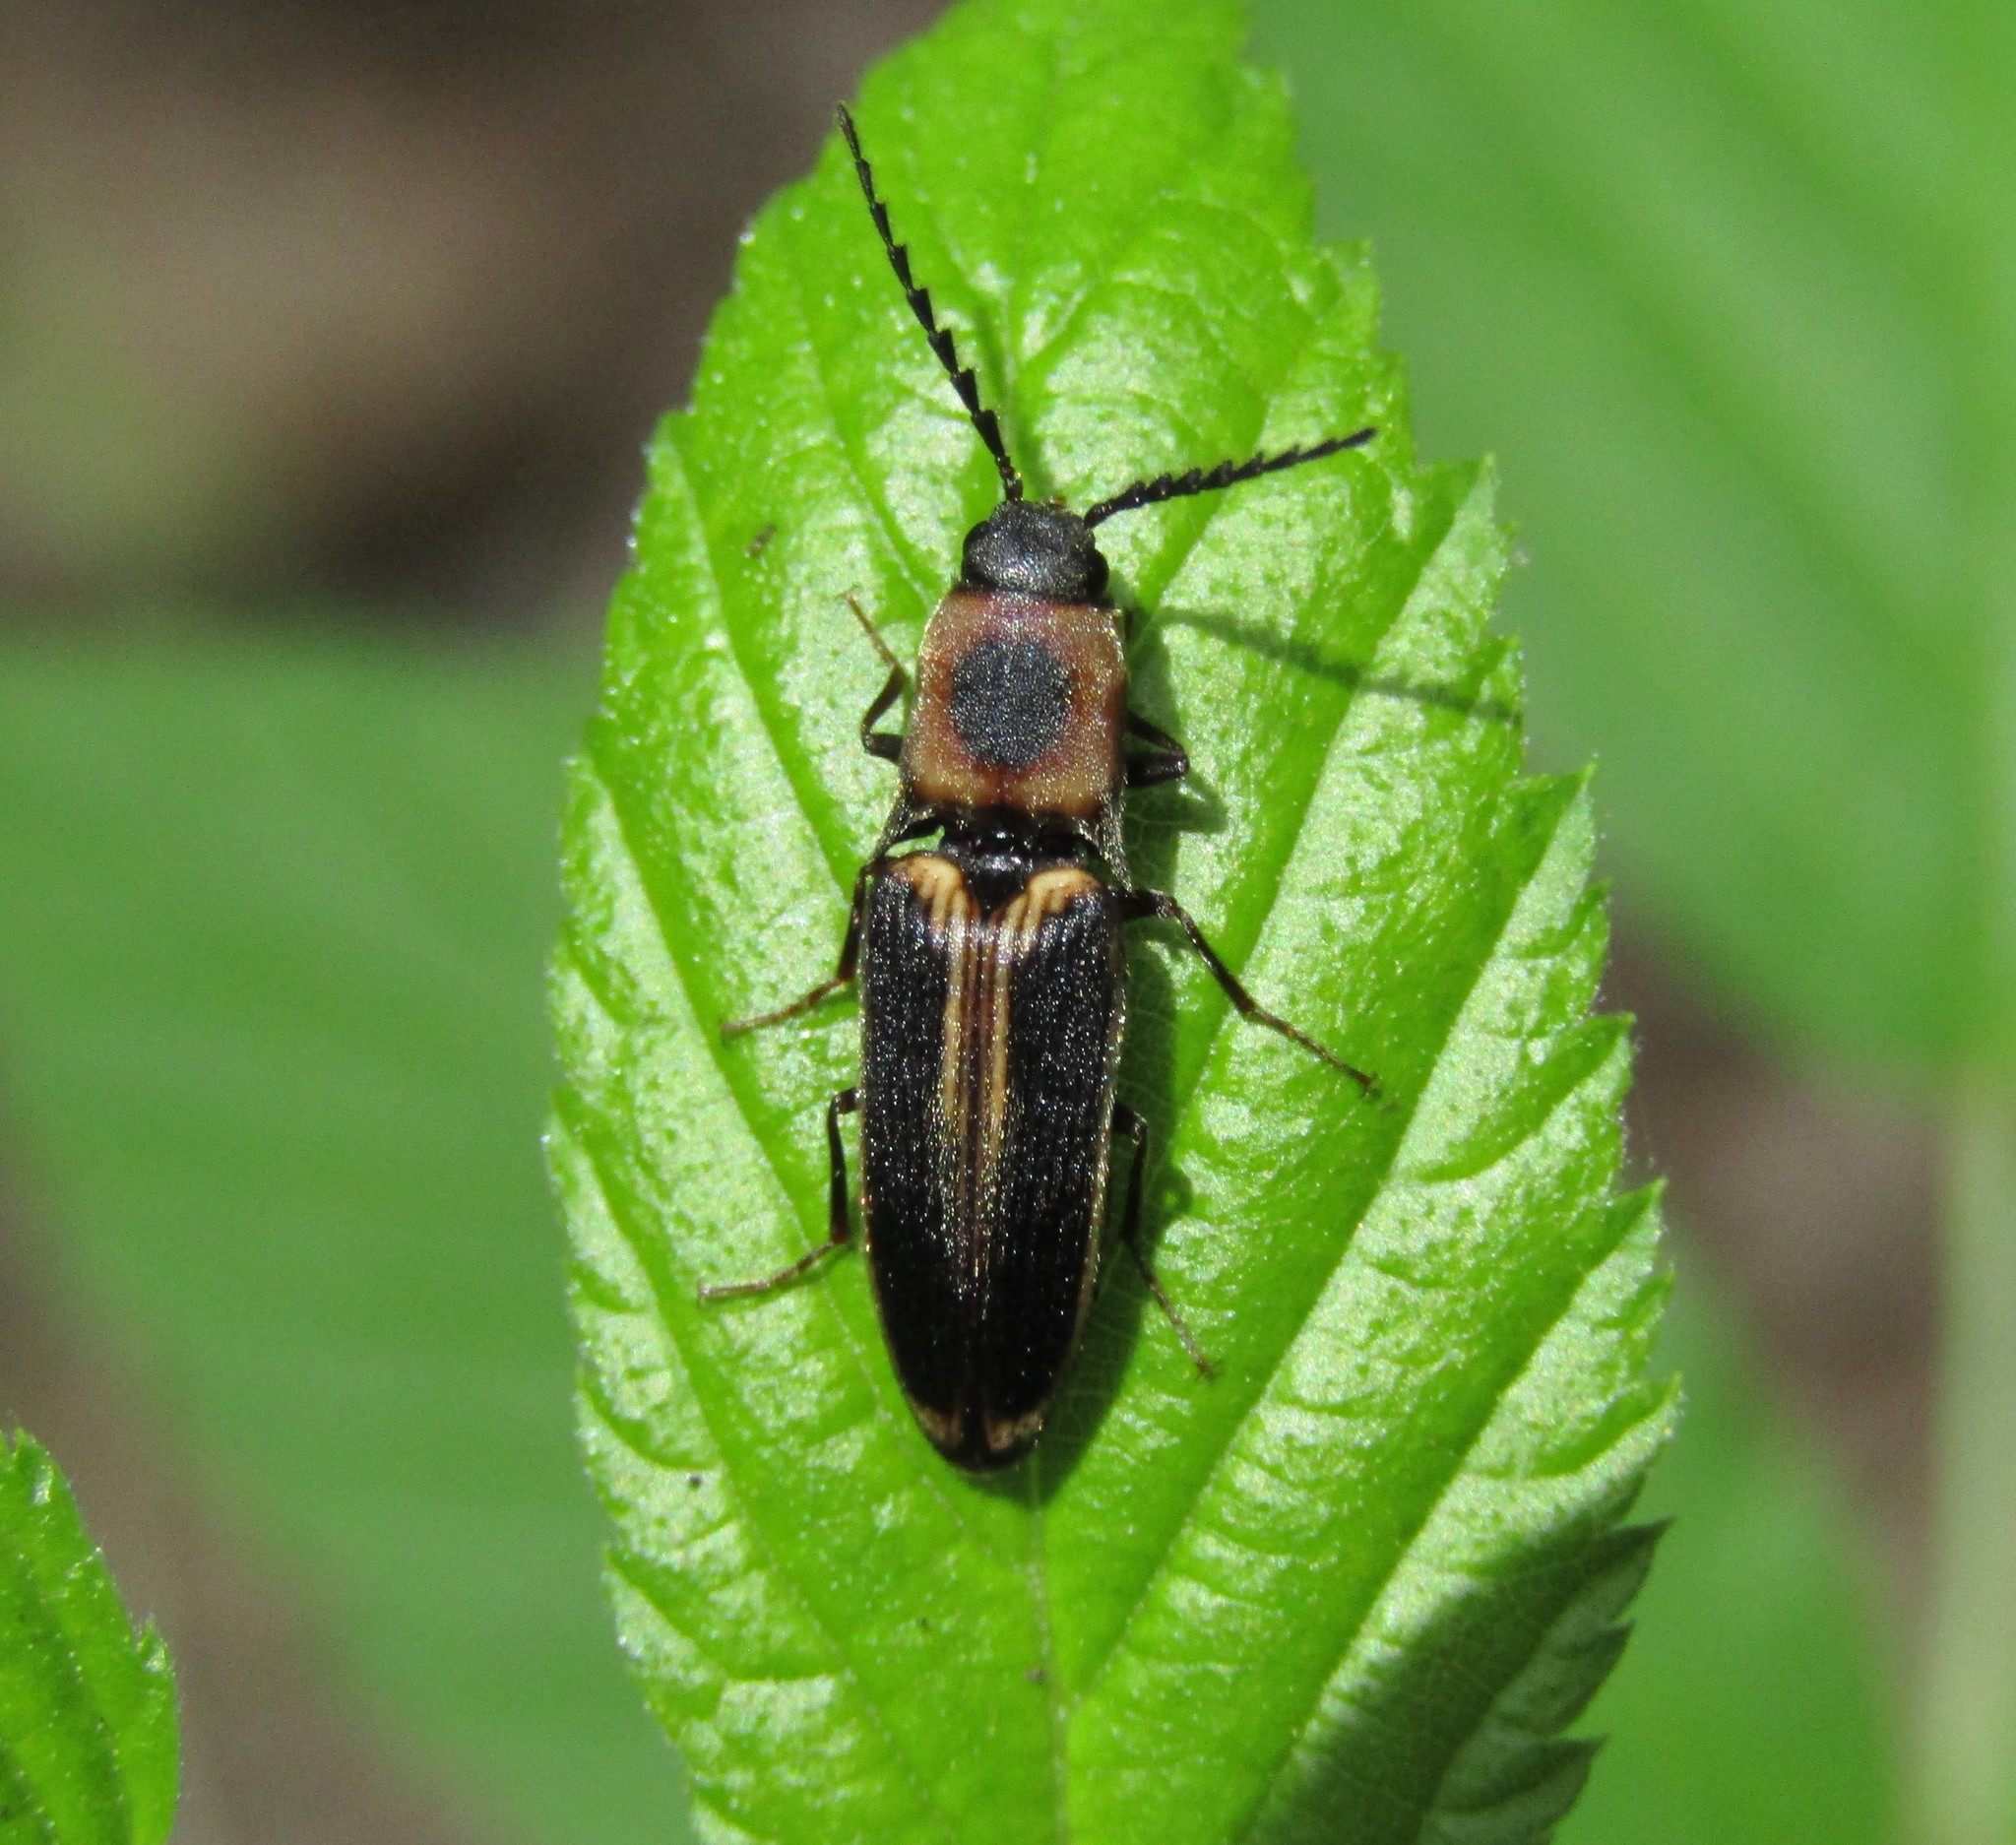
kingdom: Animalia
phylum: Arthropoda
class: Insecta
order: Coleoptera
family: Elateridae
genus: Megapenthes
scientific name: Megapenthes
